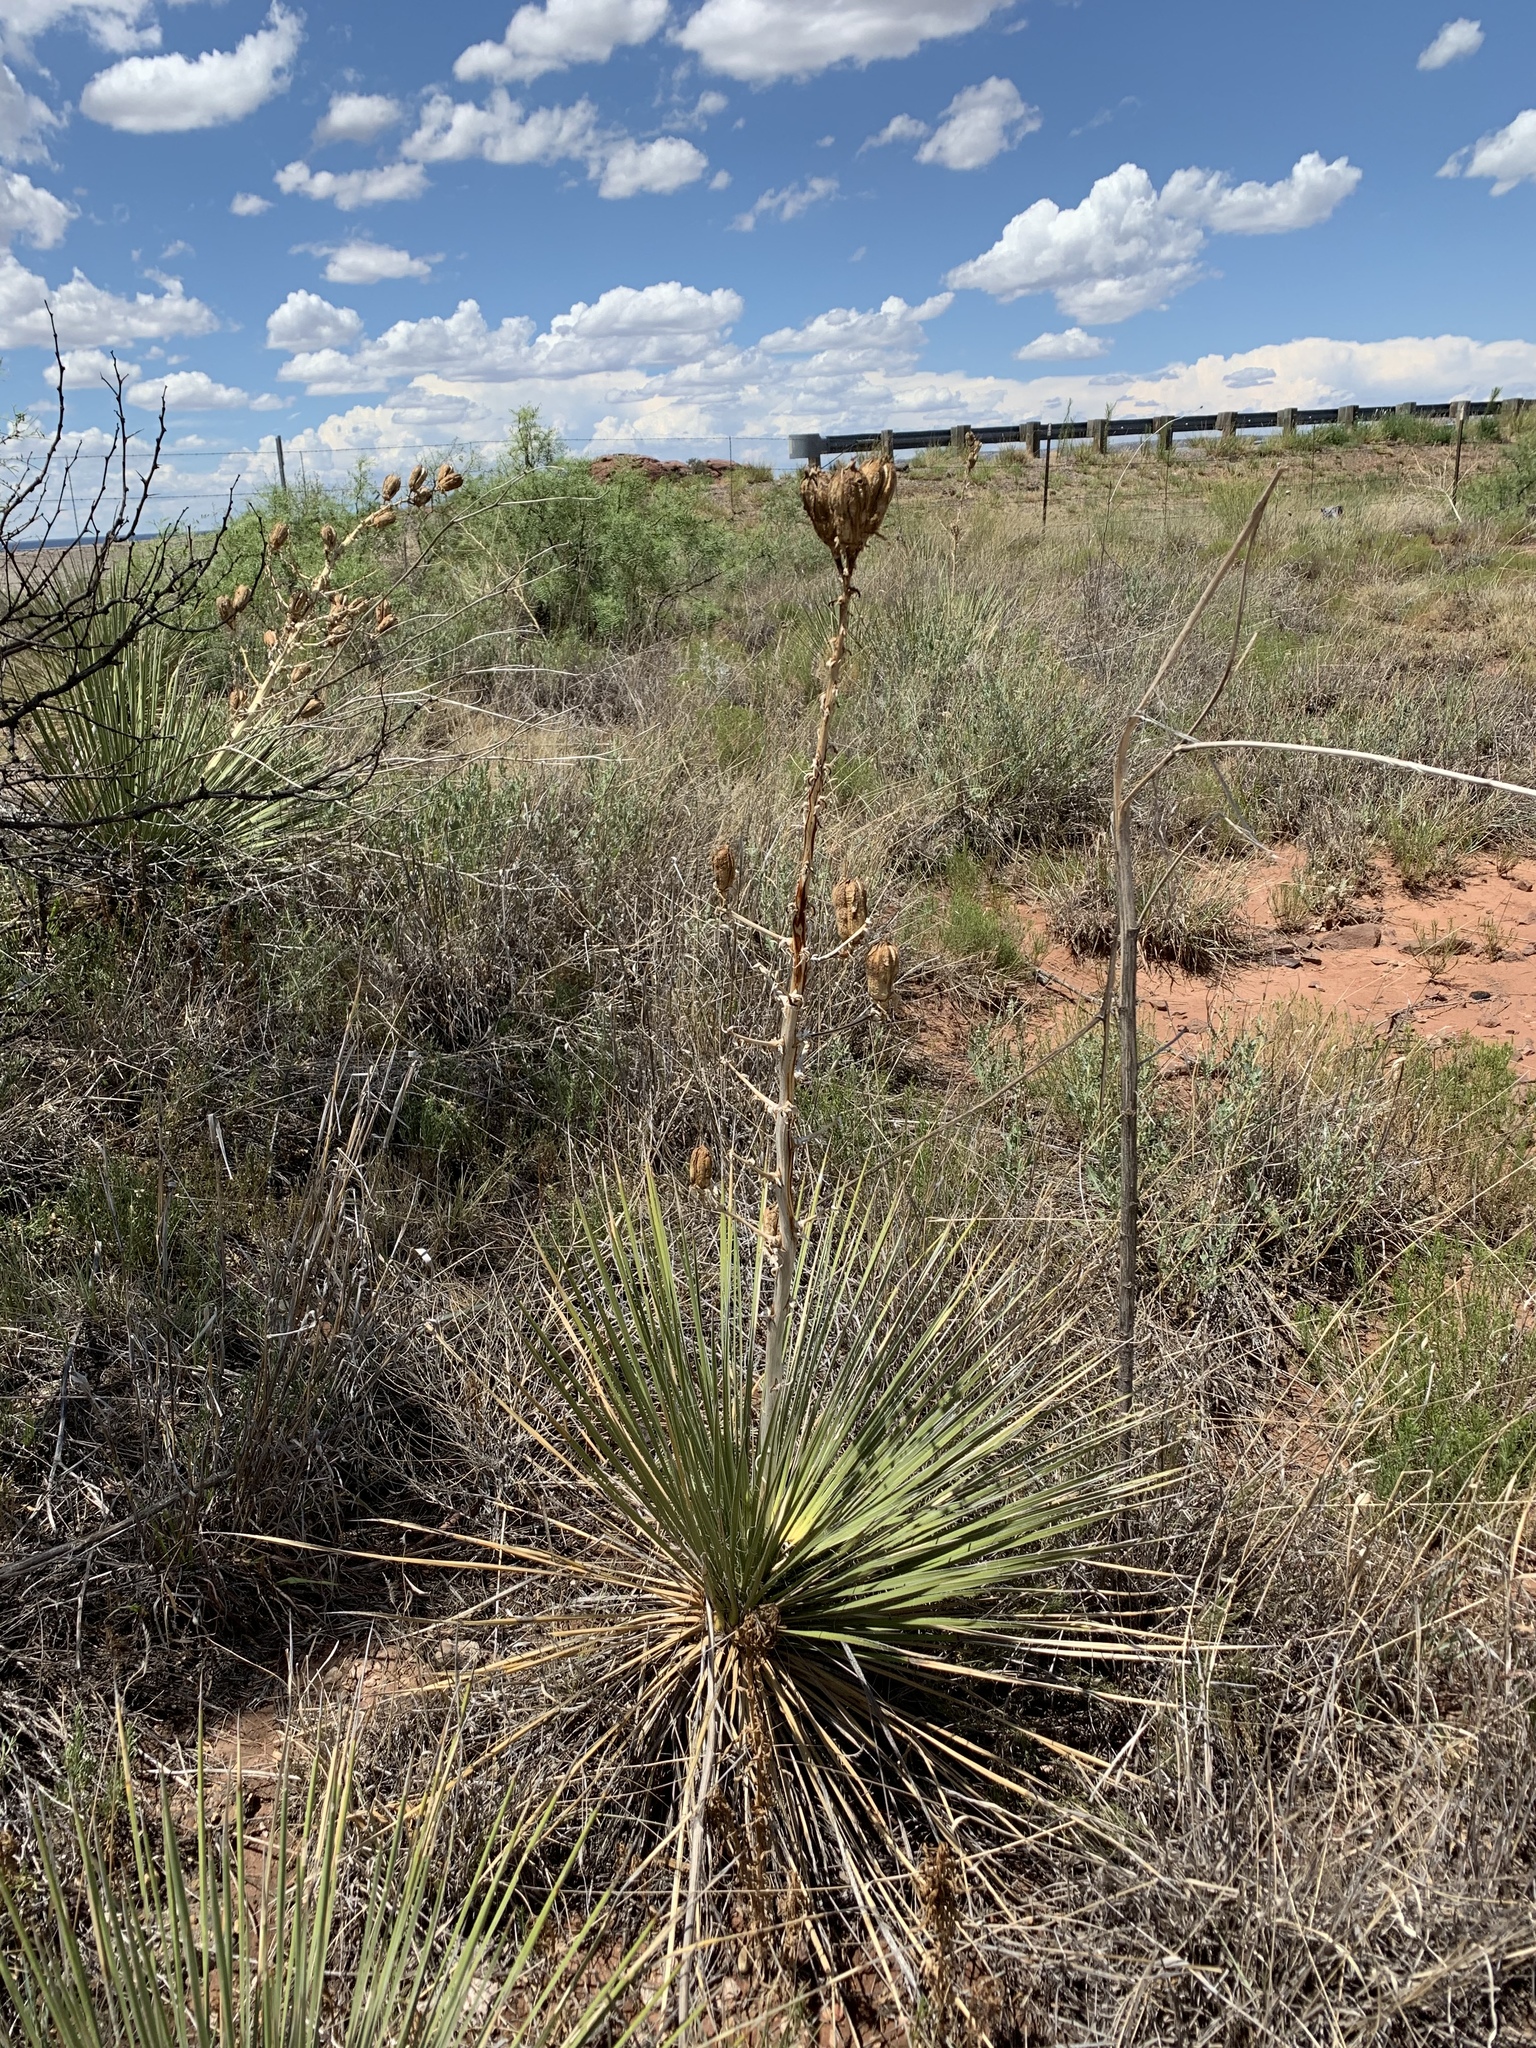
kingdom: Plantae
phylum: Tracheophyta
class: Liliopsida
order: Asparagales
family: Asparagaceae
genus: Yucca
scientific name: Yucca campestris
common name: Plains yucca
